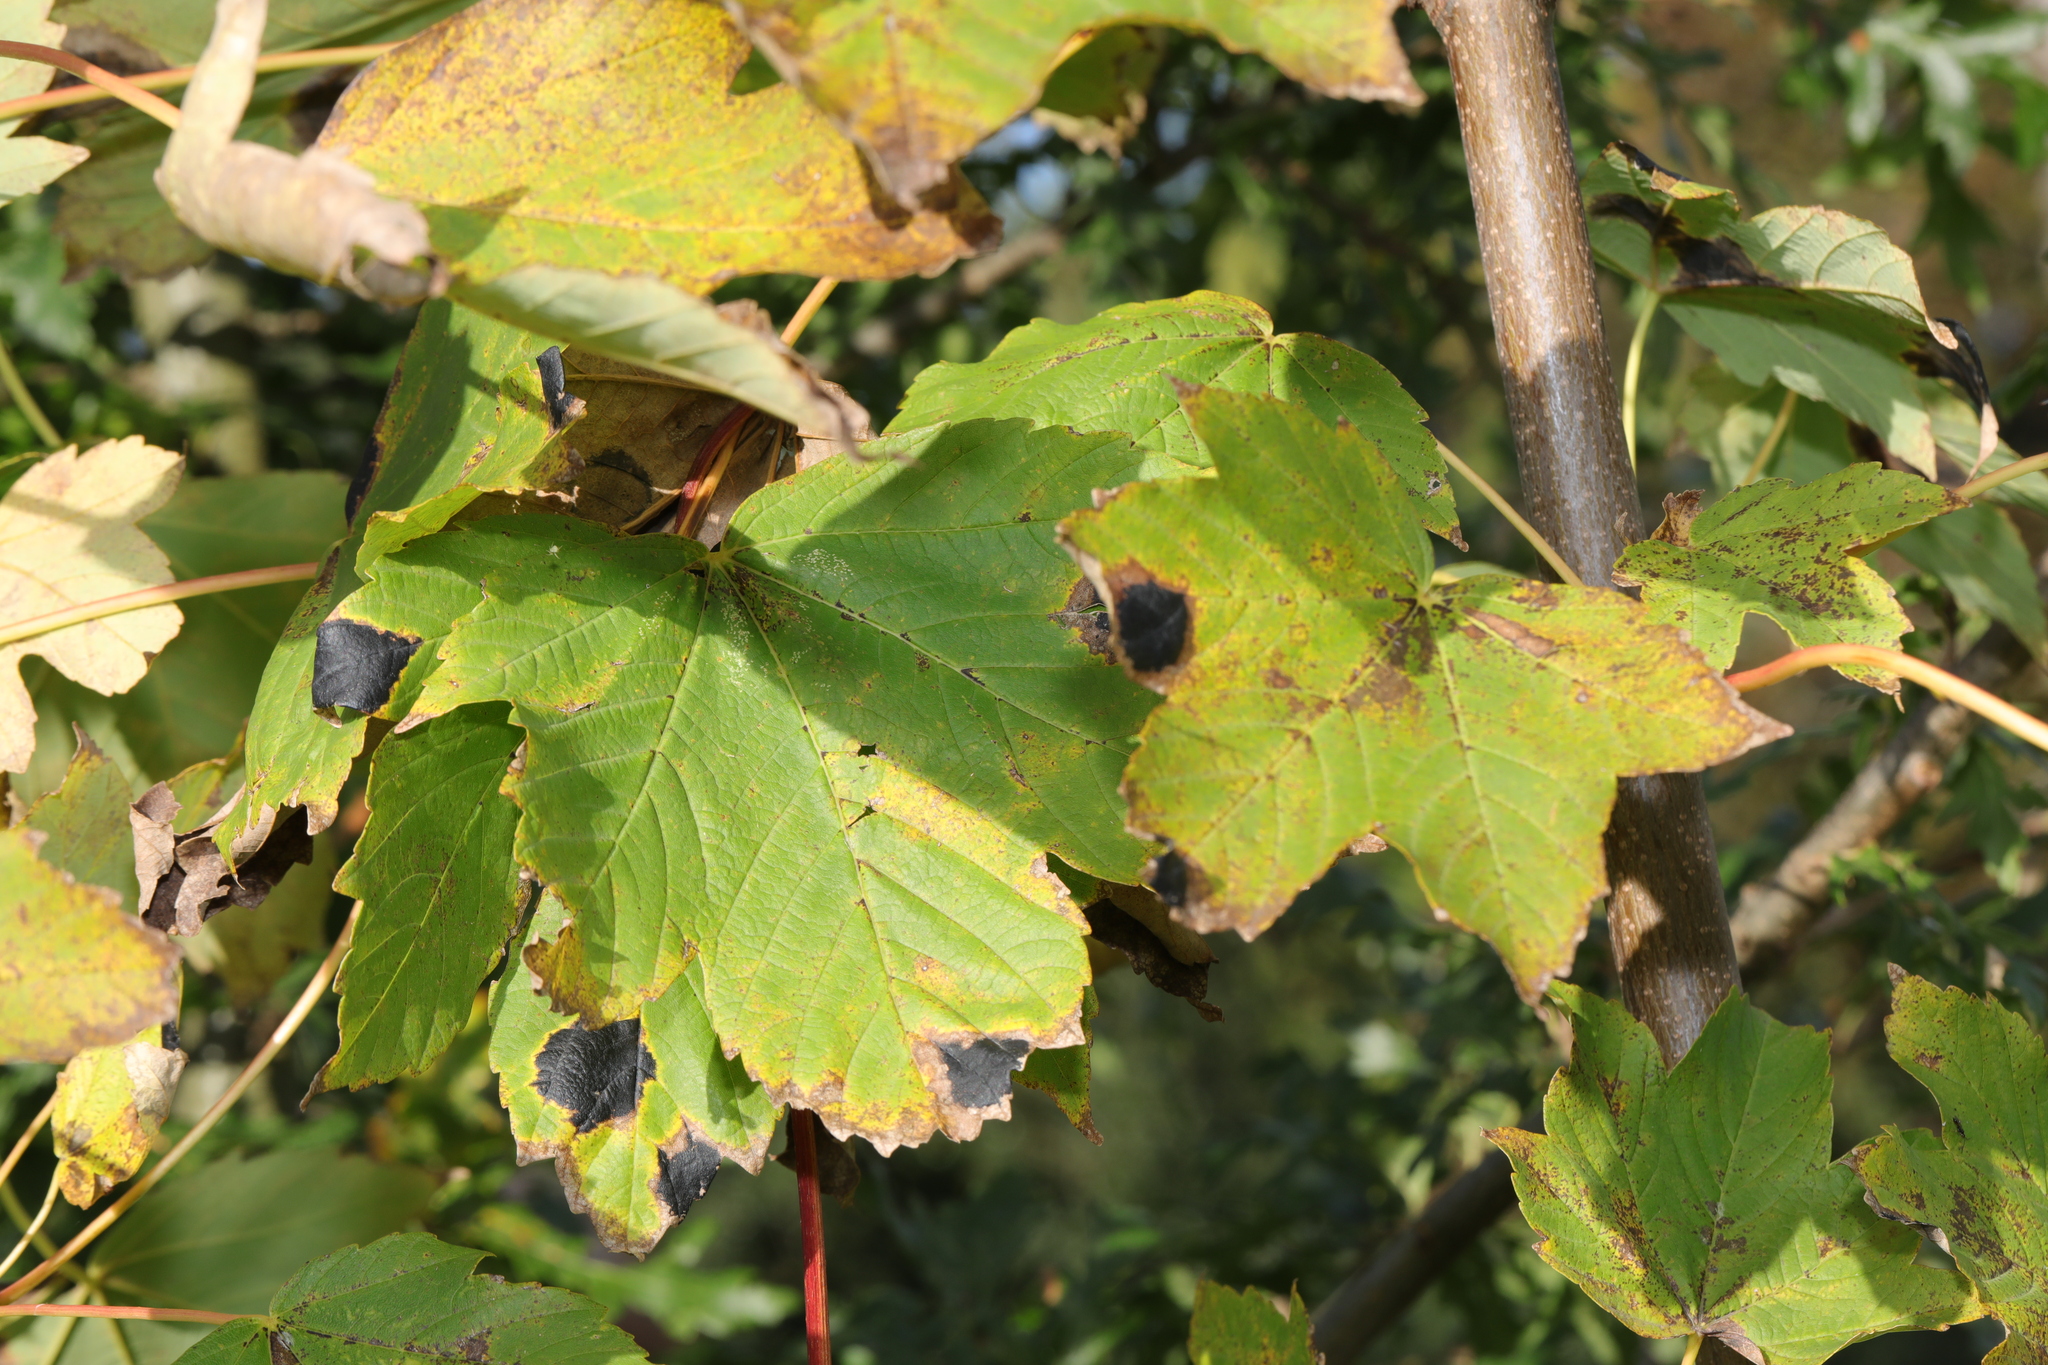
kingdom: Plantae
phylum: Tracheophyta
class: Magnoliopsida
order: Sapindales
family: Sapindaceae
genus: Acer
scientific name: Acer pseudoplatanus
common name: Sycamore
